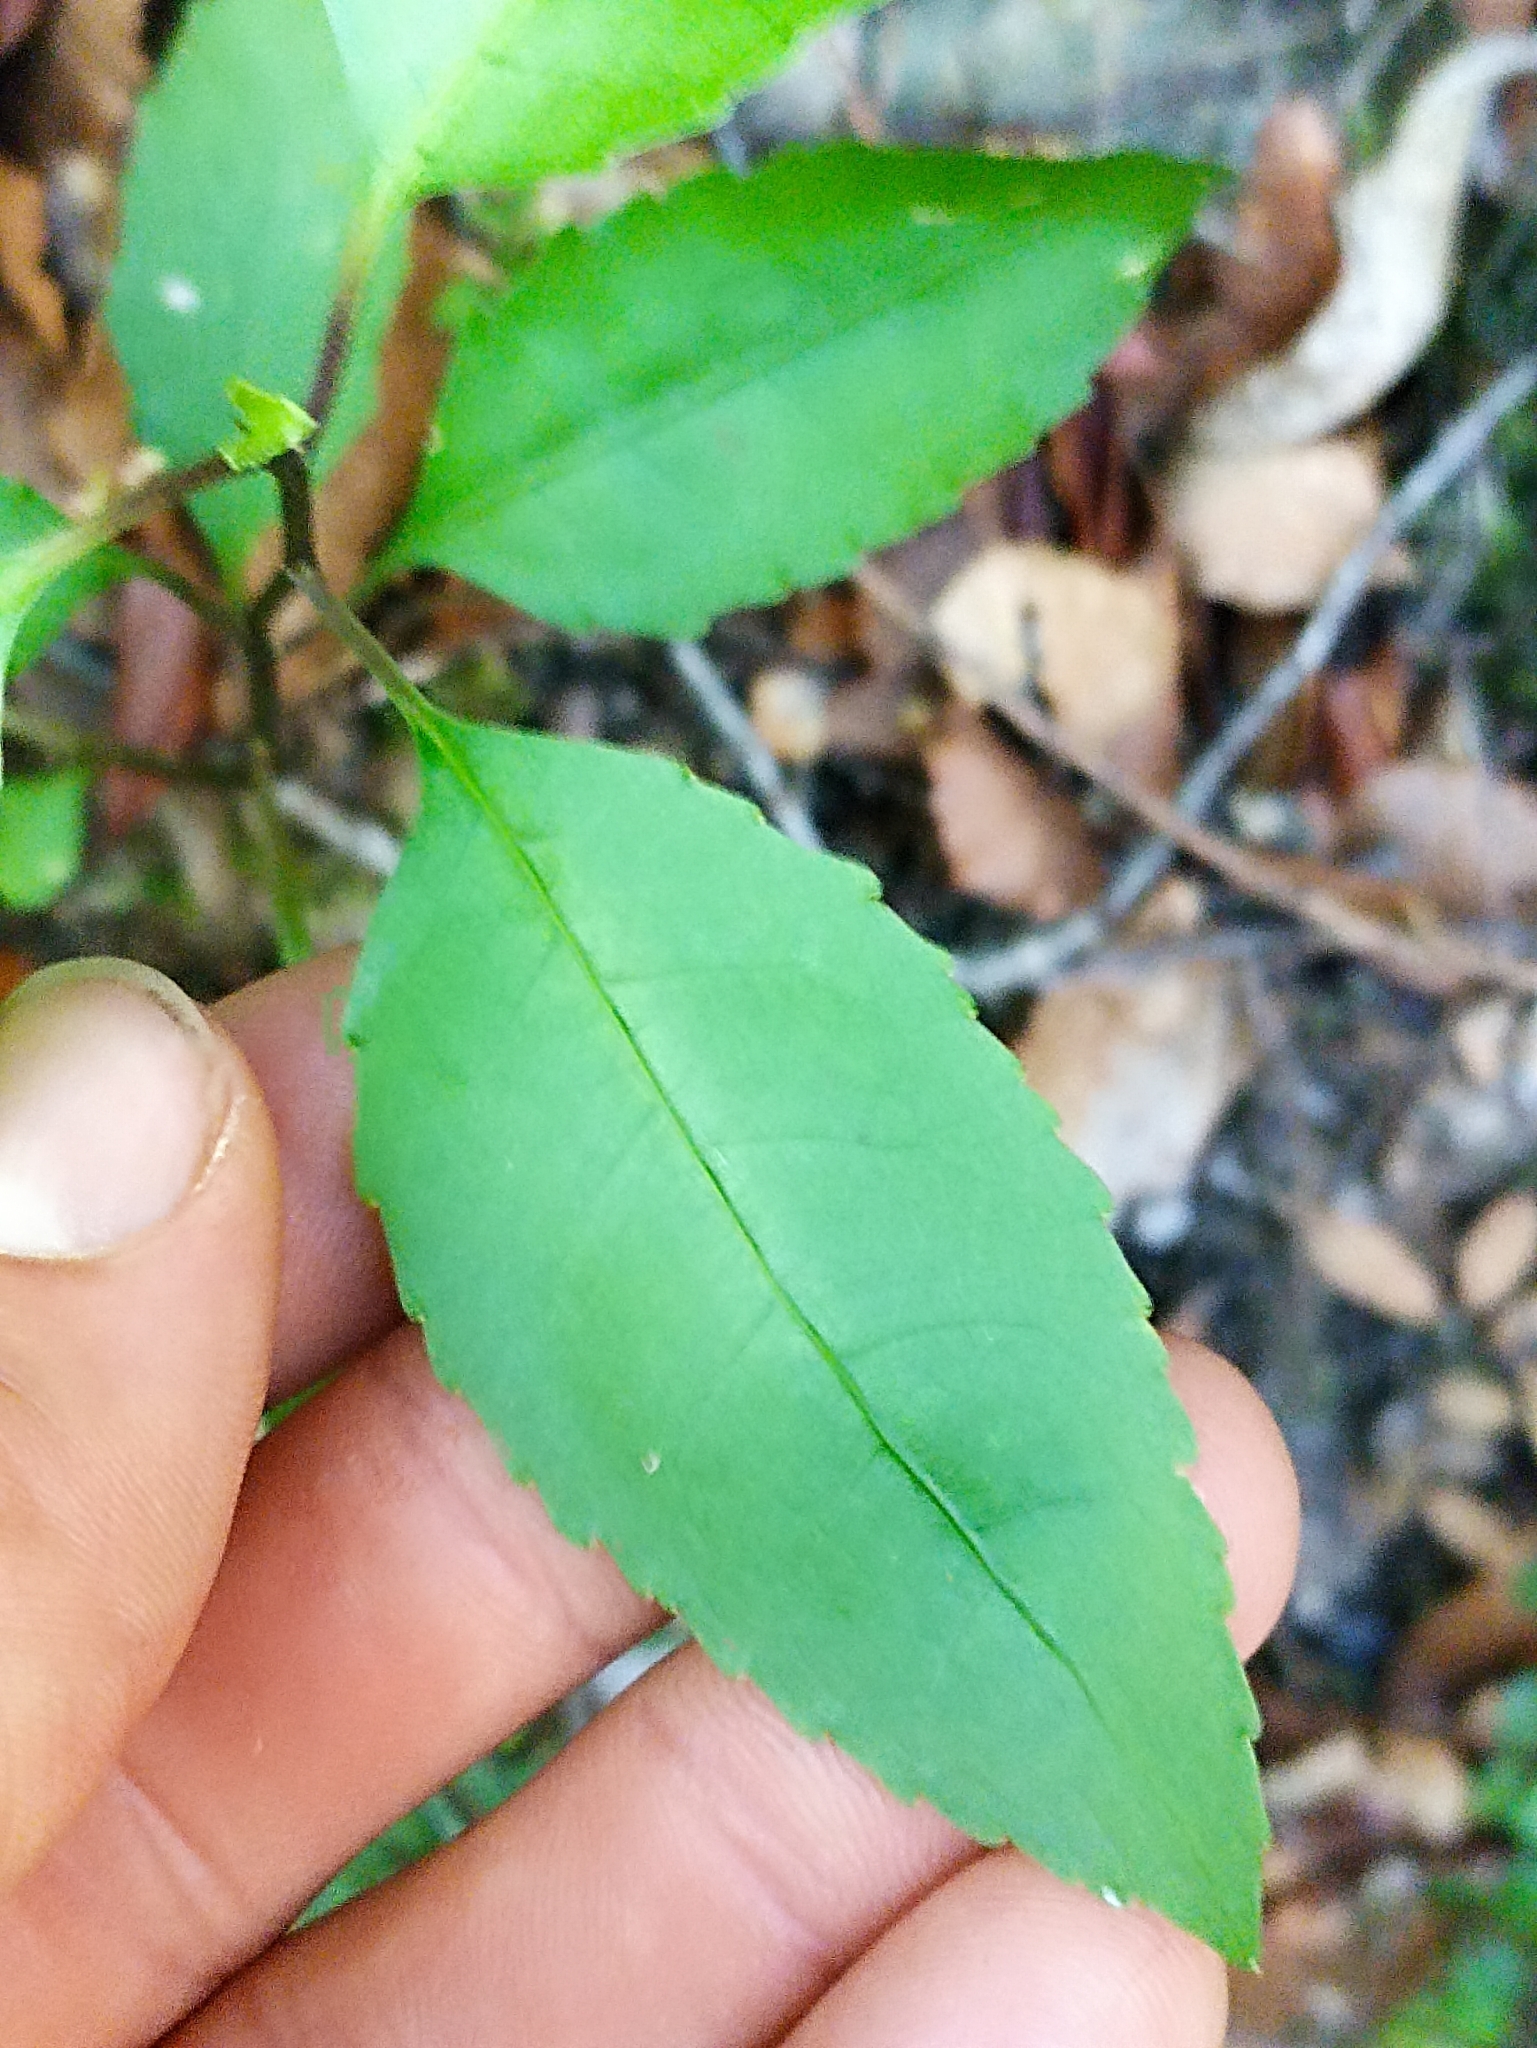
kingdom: Plantae
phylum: Tracheophyta
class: Magnoliopsida
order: Malpighiales
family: Violaceae
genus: Melicytus
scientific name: Melicytus ramiflorus
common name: Mahoe
